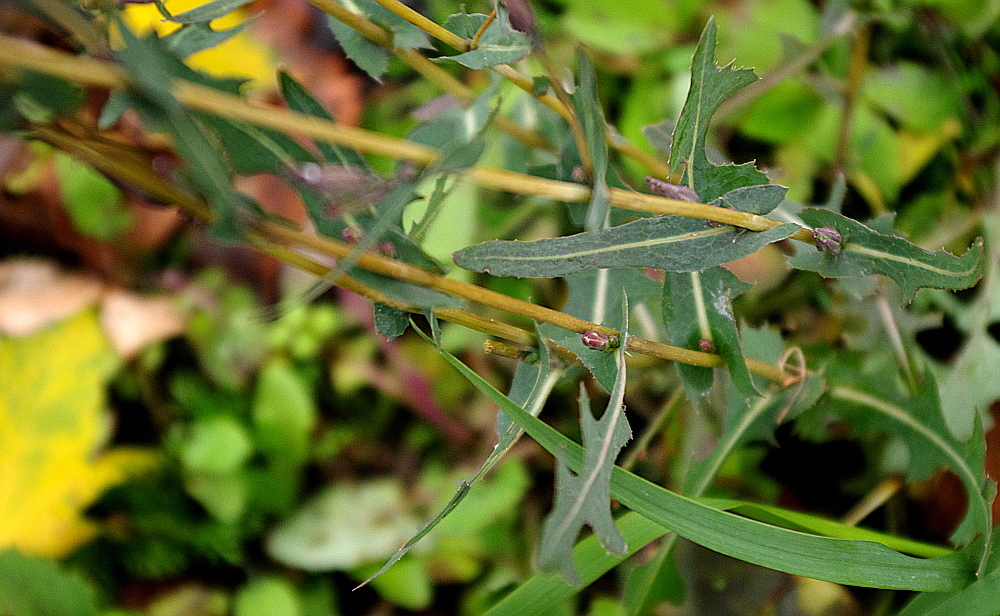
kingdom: Plantae
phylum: Tracheophyta
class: Magnoliopsida
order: Asterales
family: Asteraceae
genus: Lactuca
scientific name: Lactuca serriola
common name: Prickly lettuce
